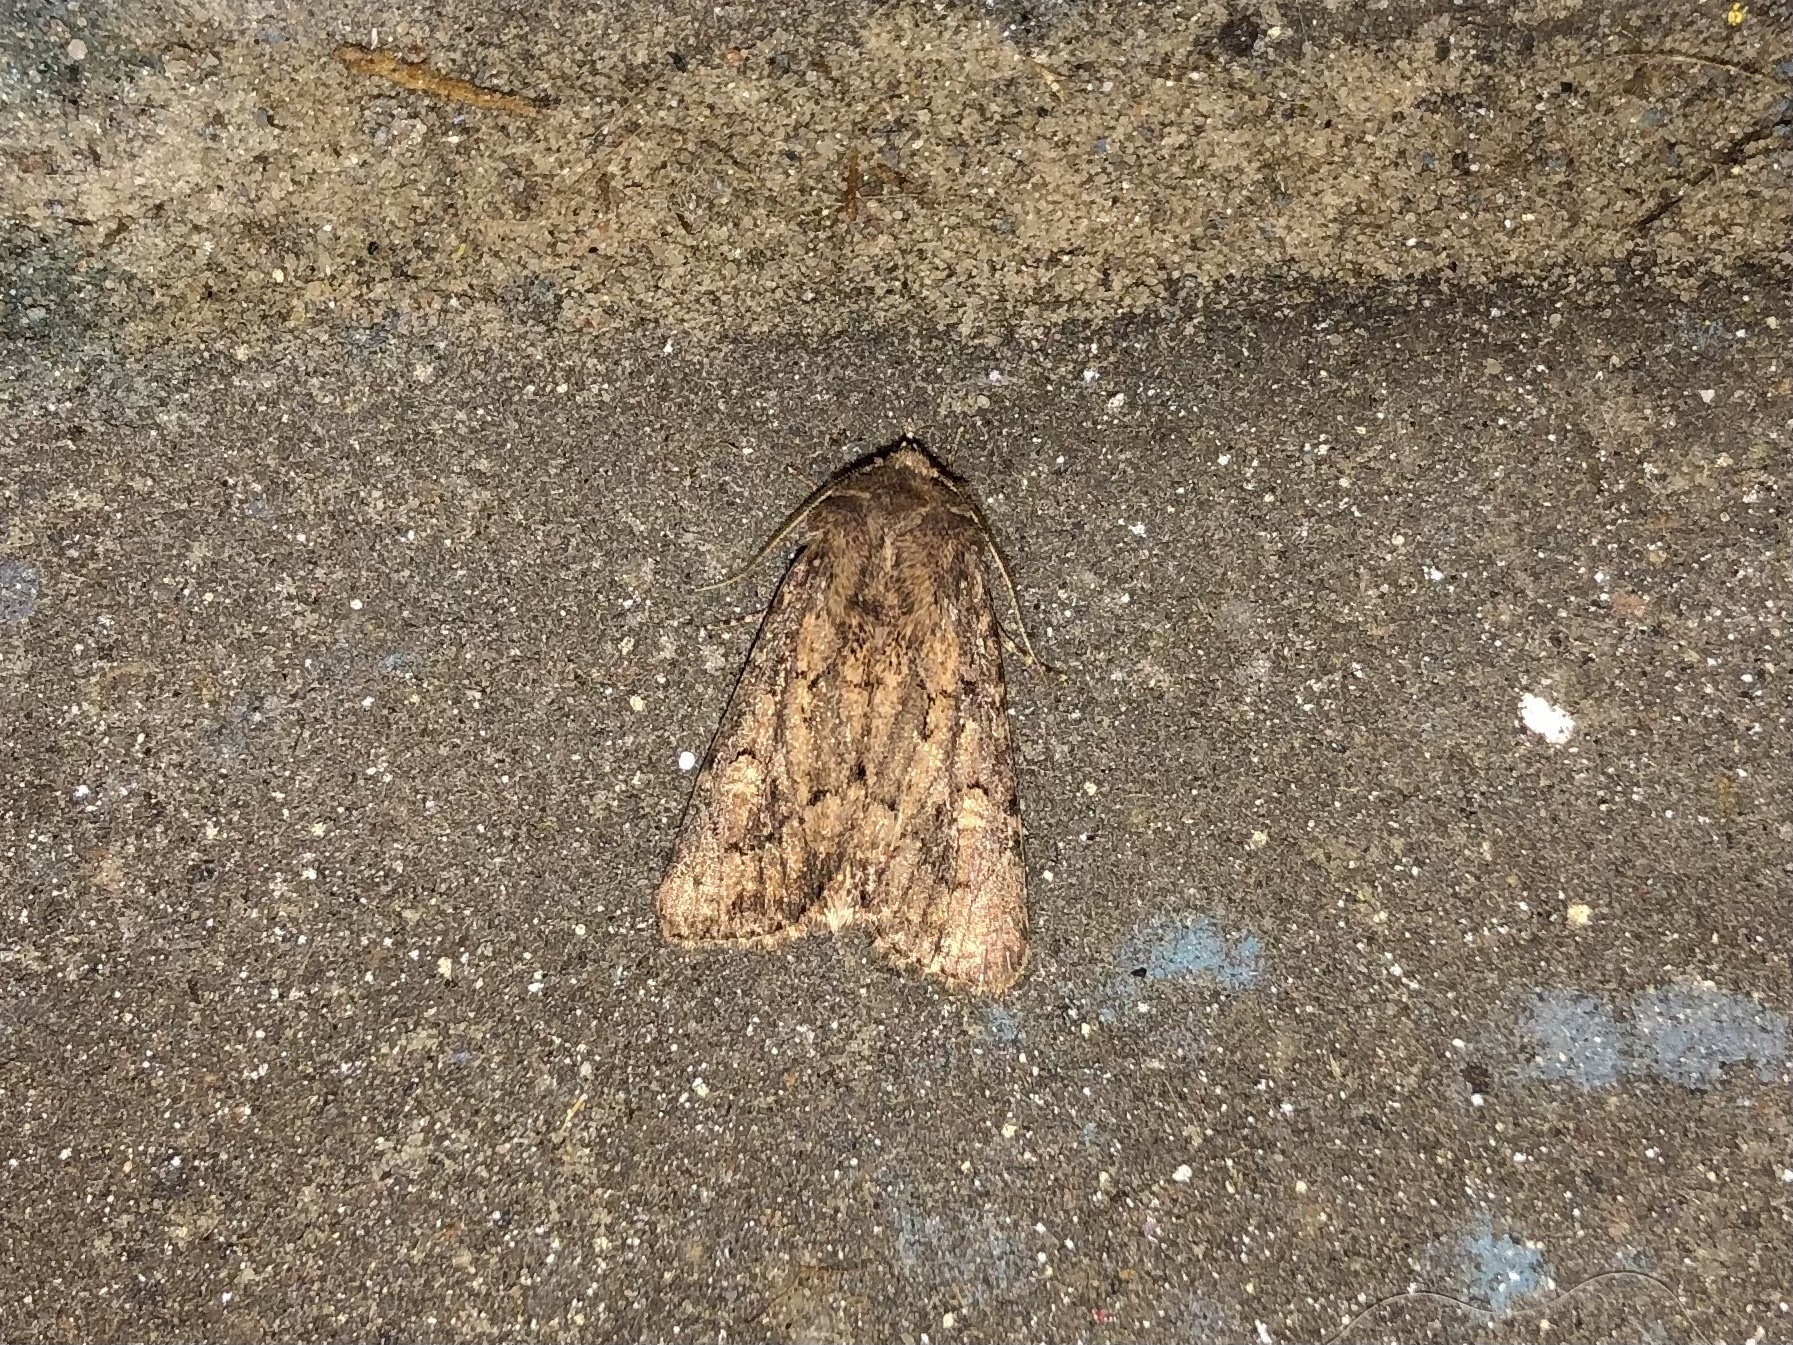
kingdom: Animalia
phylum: Arthropoda
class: Insecta
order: Lepidoptera
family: Noctuidae
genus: Luperina
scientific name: Luperina testacea
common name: Flounced rustic
